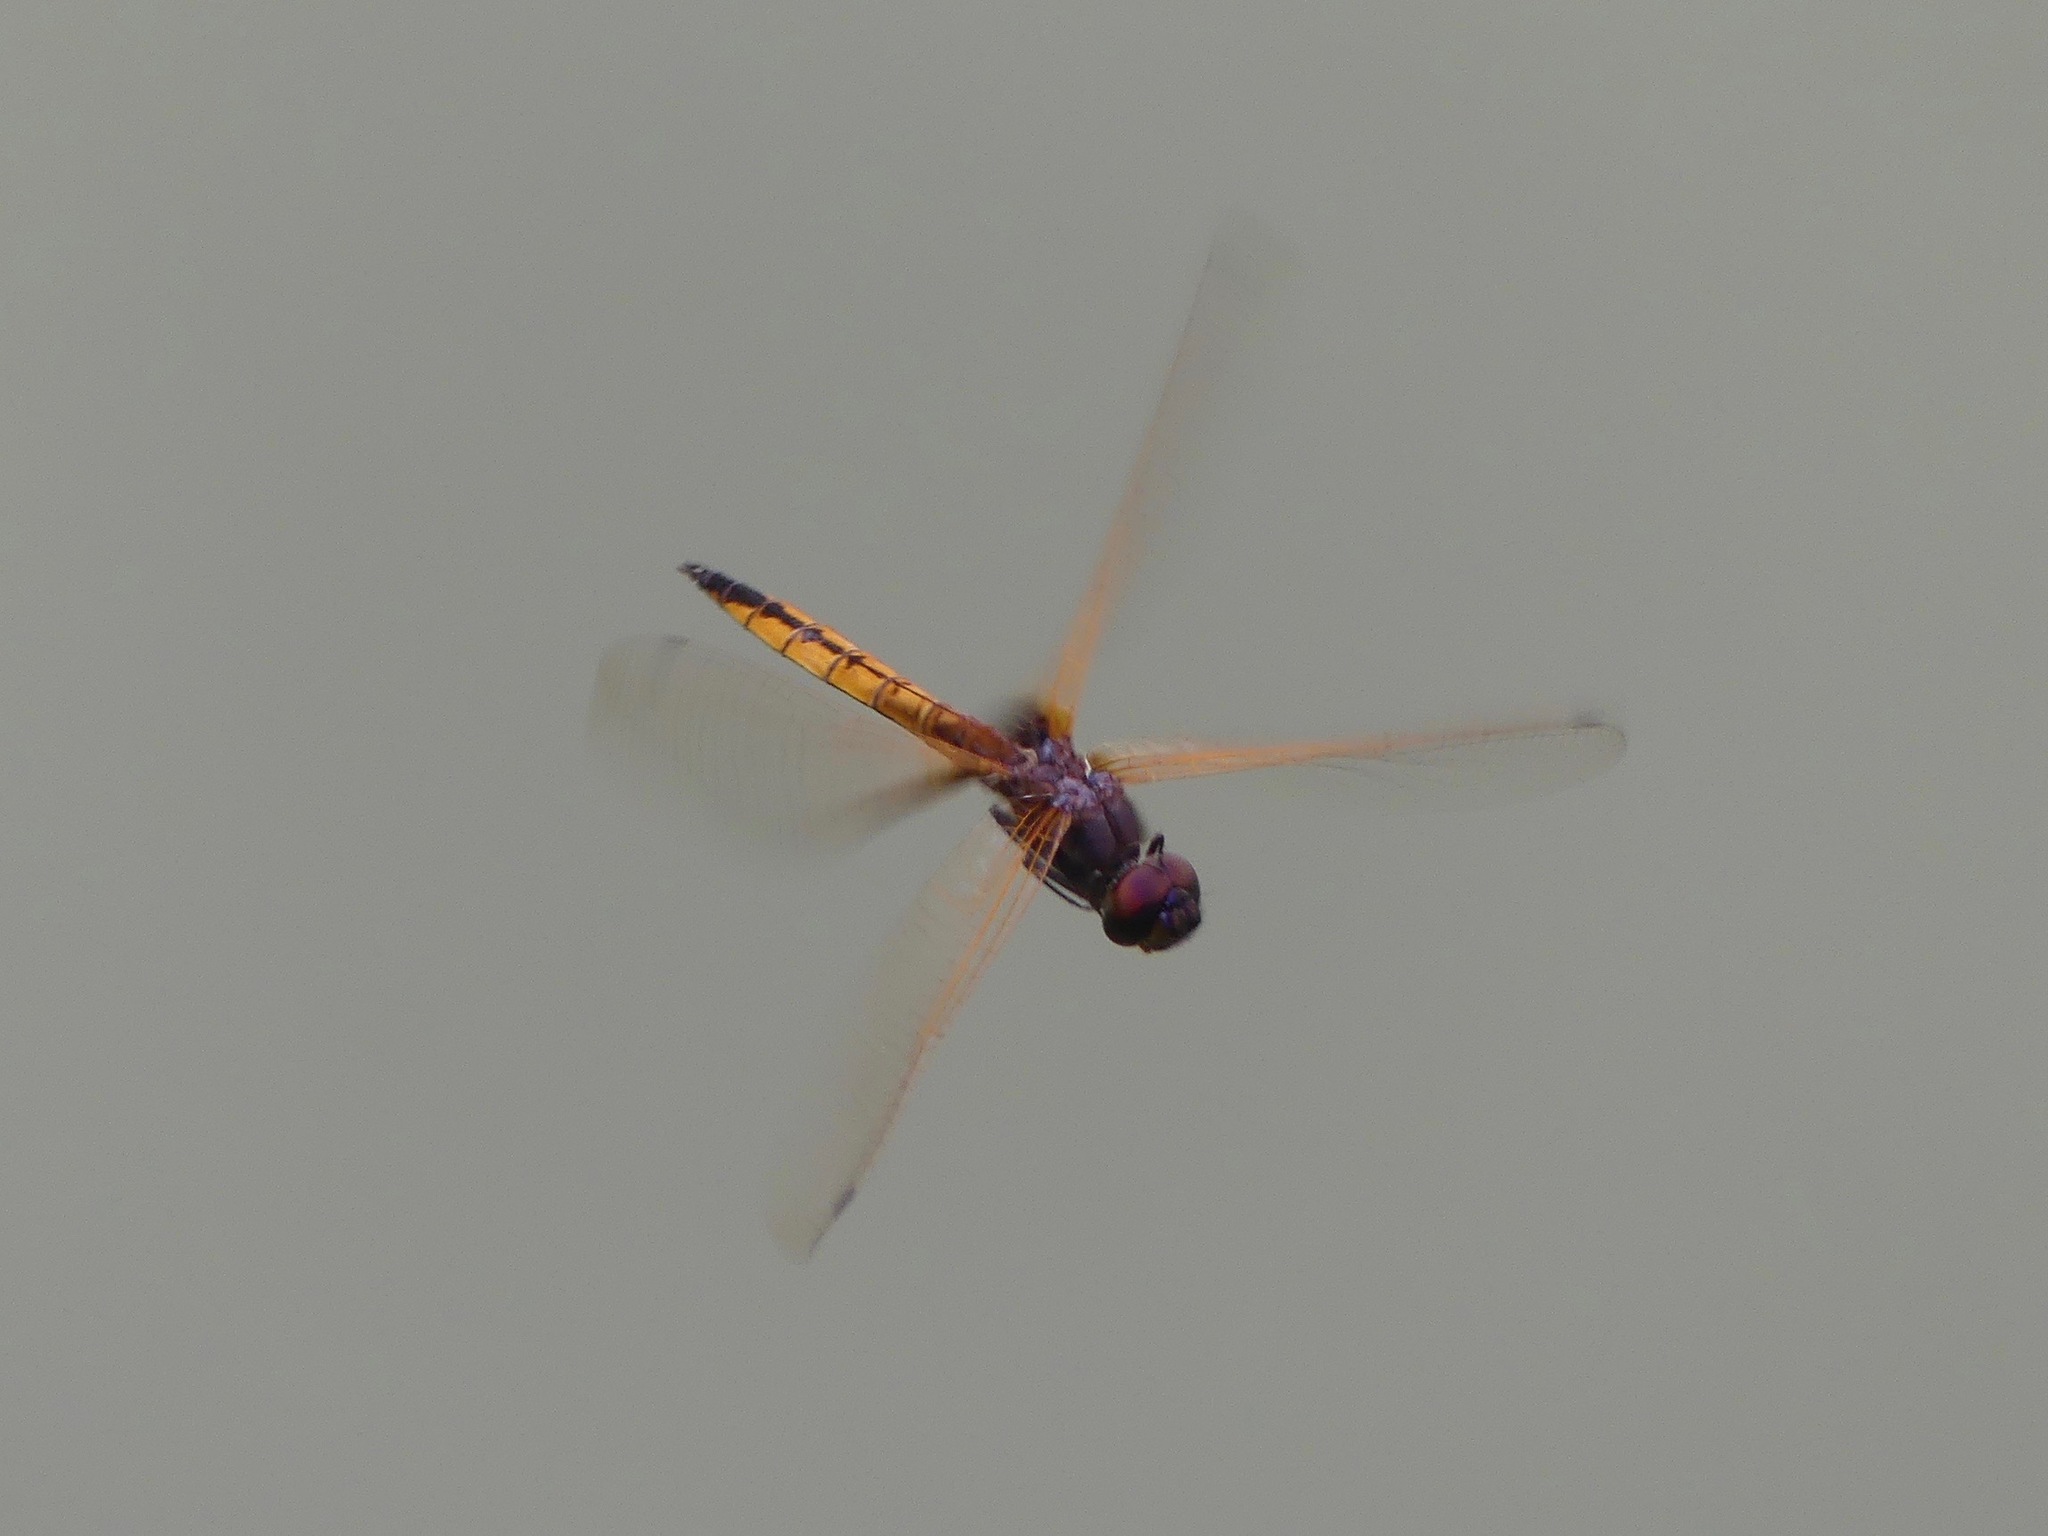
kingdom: Animalia
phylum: Arthropoda
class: Insecta
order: Odonata
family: Libellulidae
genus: Miathyria
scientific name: Miathyria marcella
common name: Hyacinth glider
